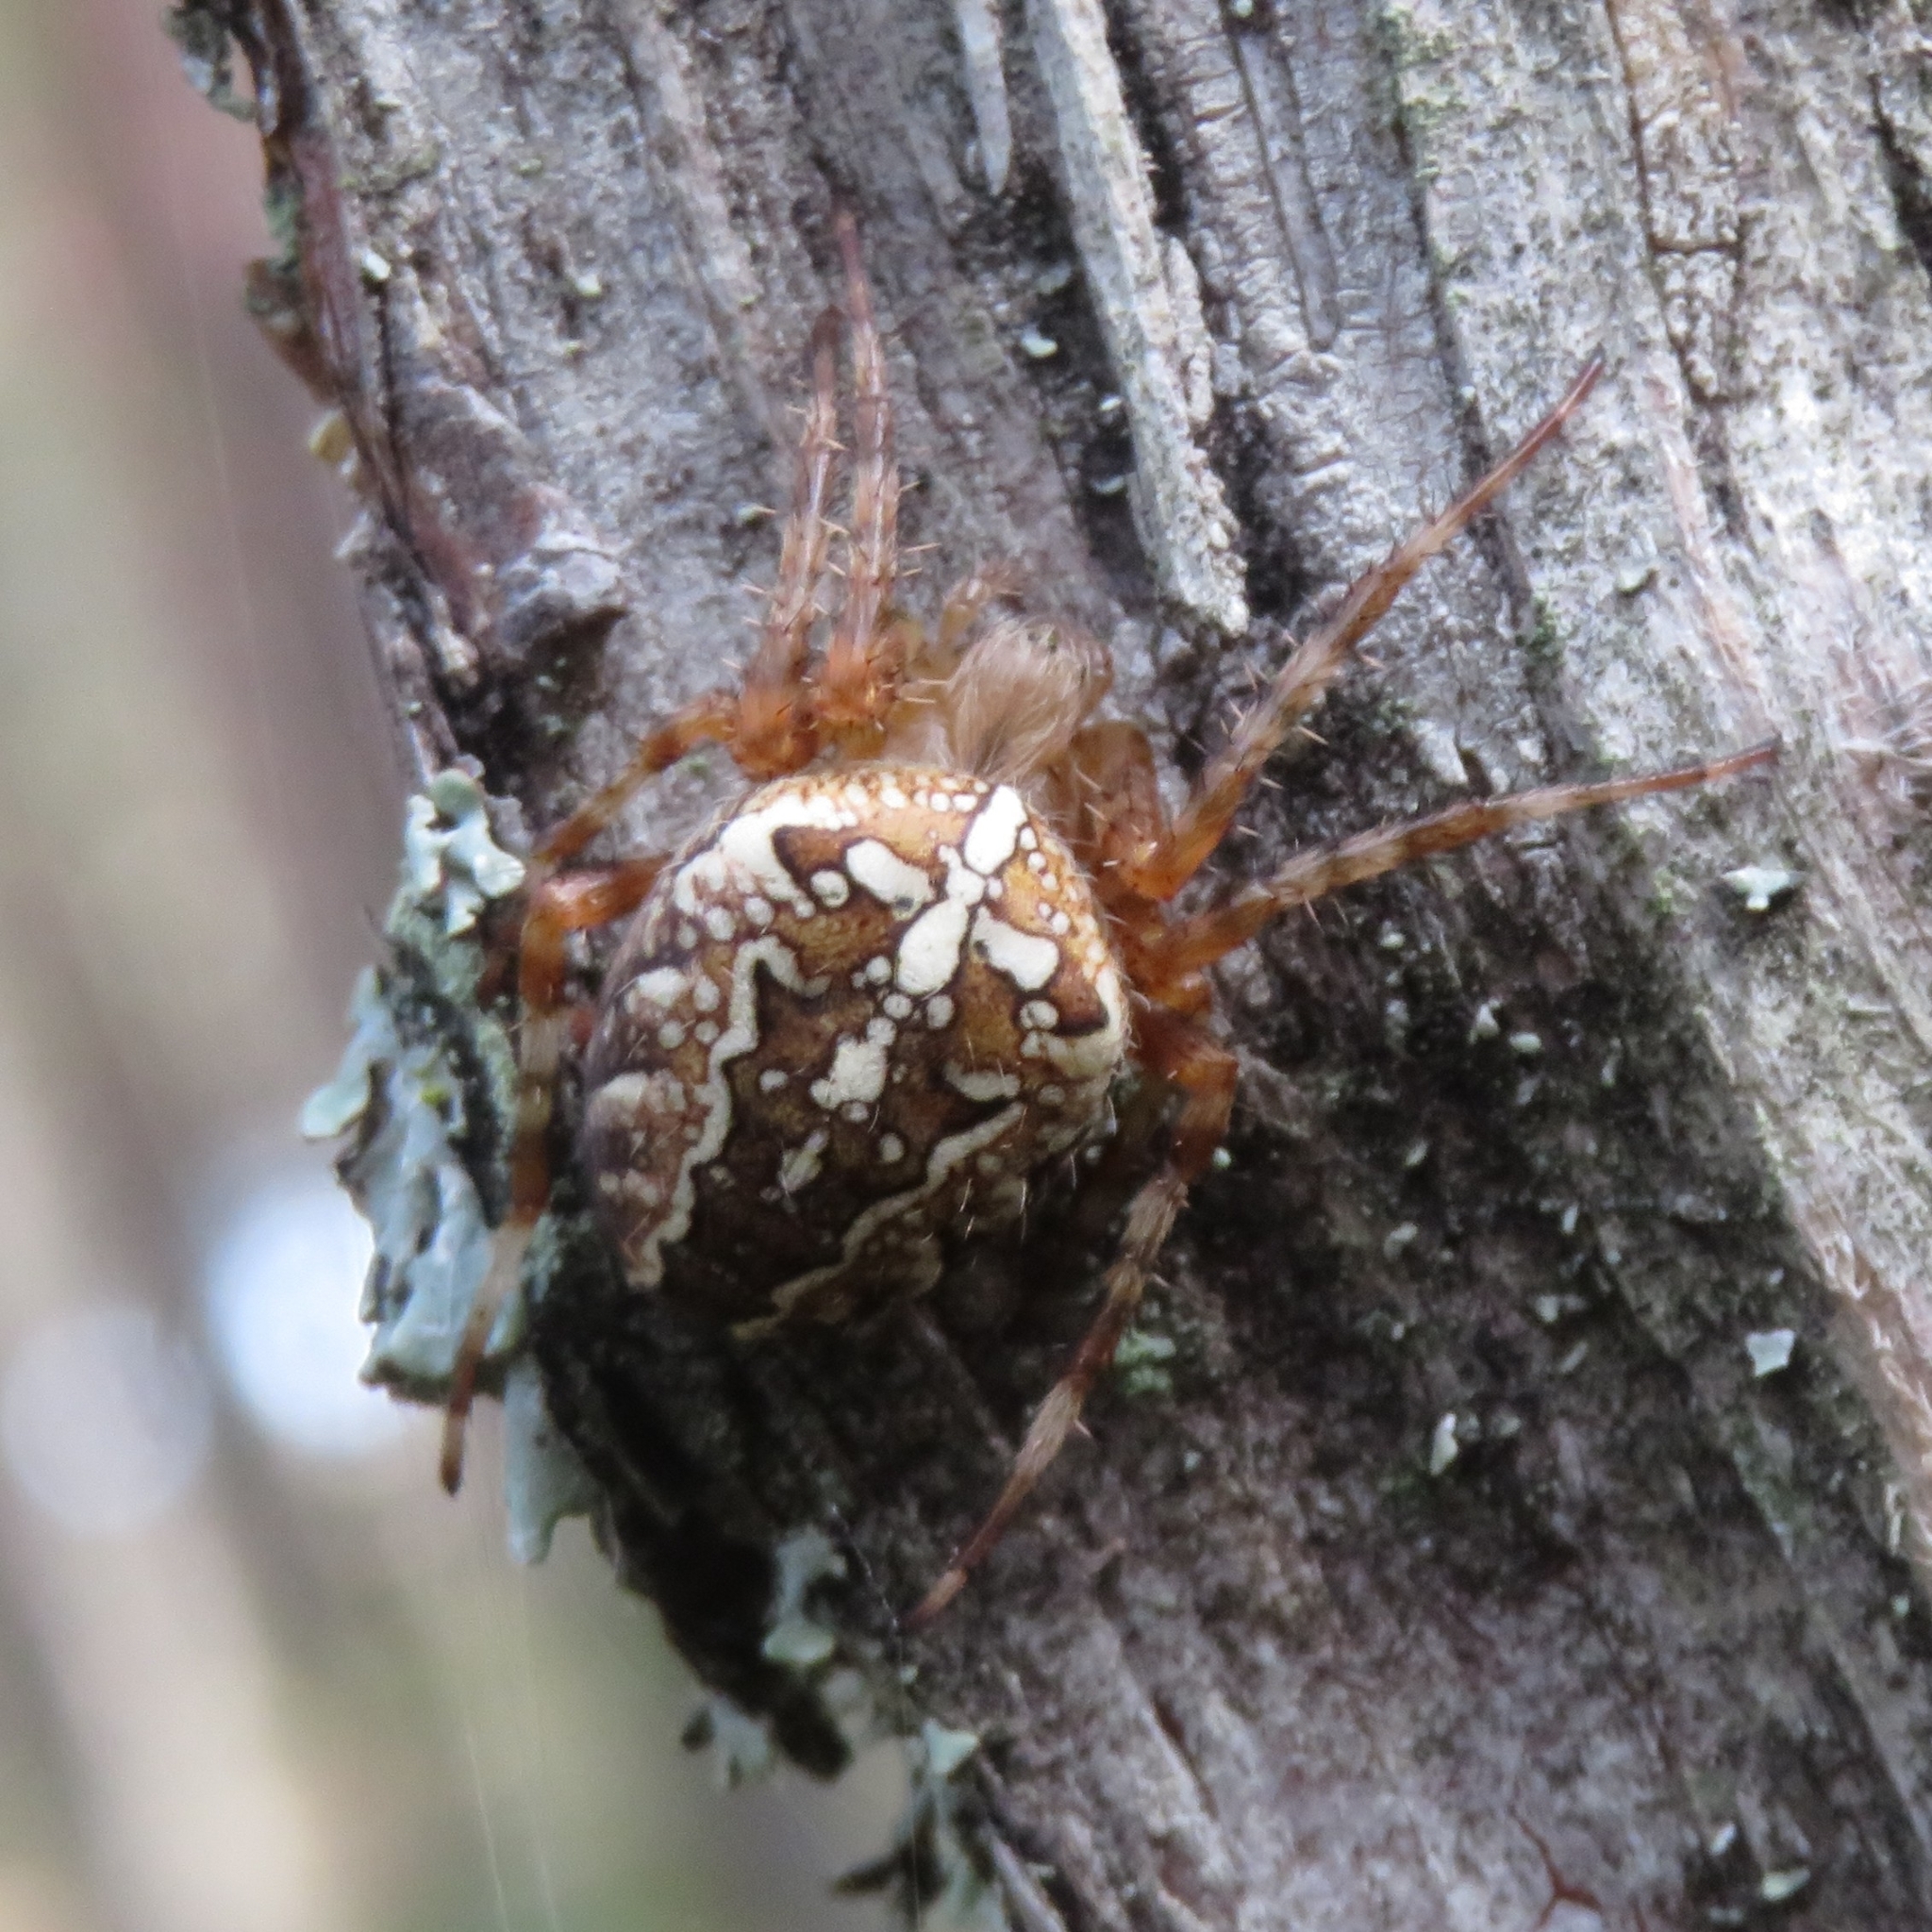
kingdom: Animalia
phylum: Arthropoda
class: Arachnida
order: Araneae
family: Araneidae
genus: Araneus
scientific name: Araneus diadematus
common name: Cross orbweaver
